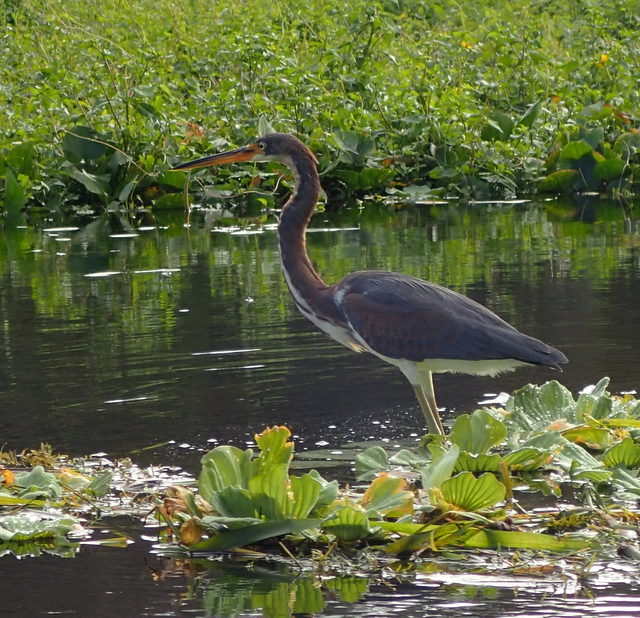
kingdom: Animalia
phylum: Chordata
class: Aves
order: Pelecaniformes
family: Ardeidae
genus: Egretta
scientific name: Egretta tricolor
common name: Tricolored heron
